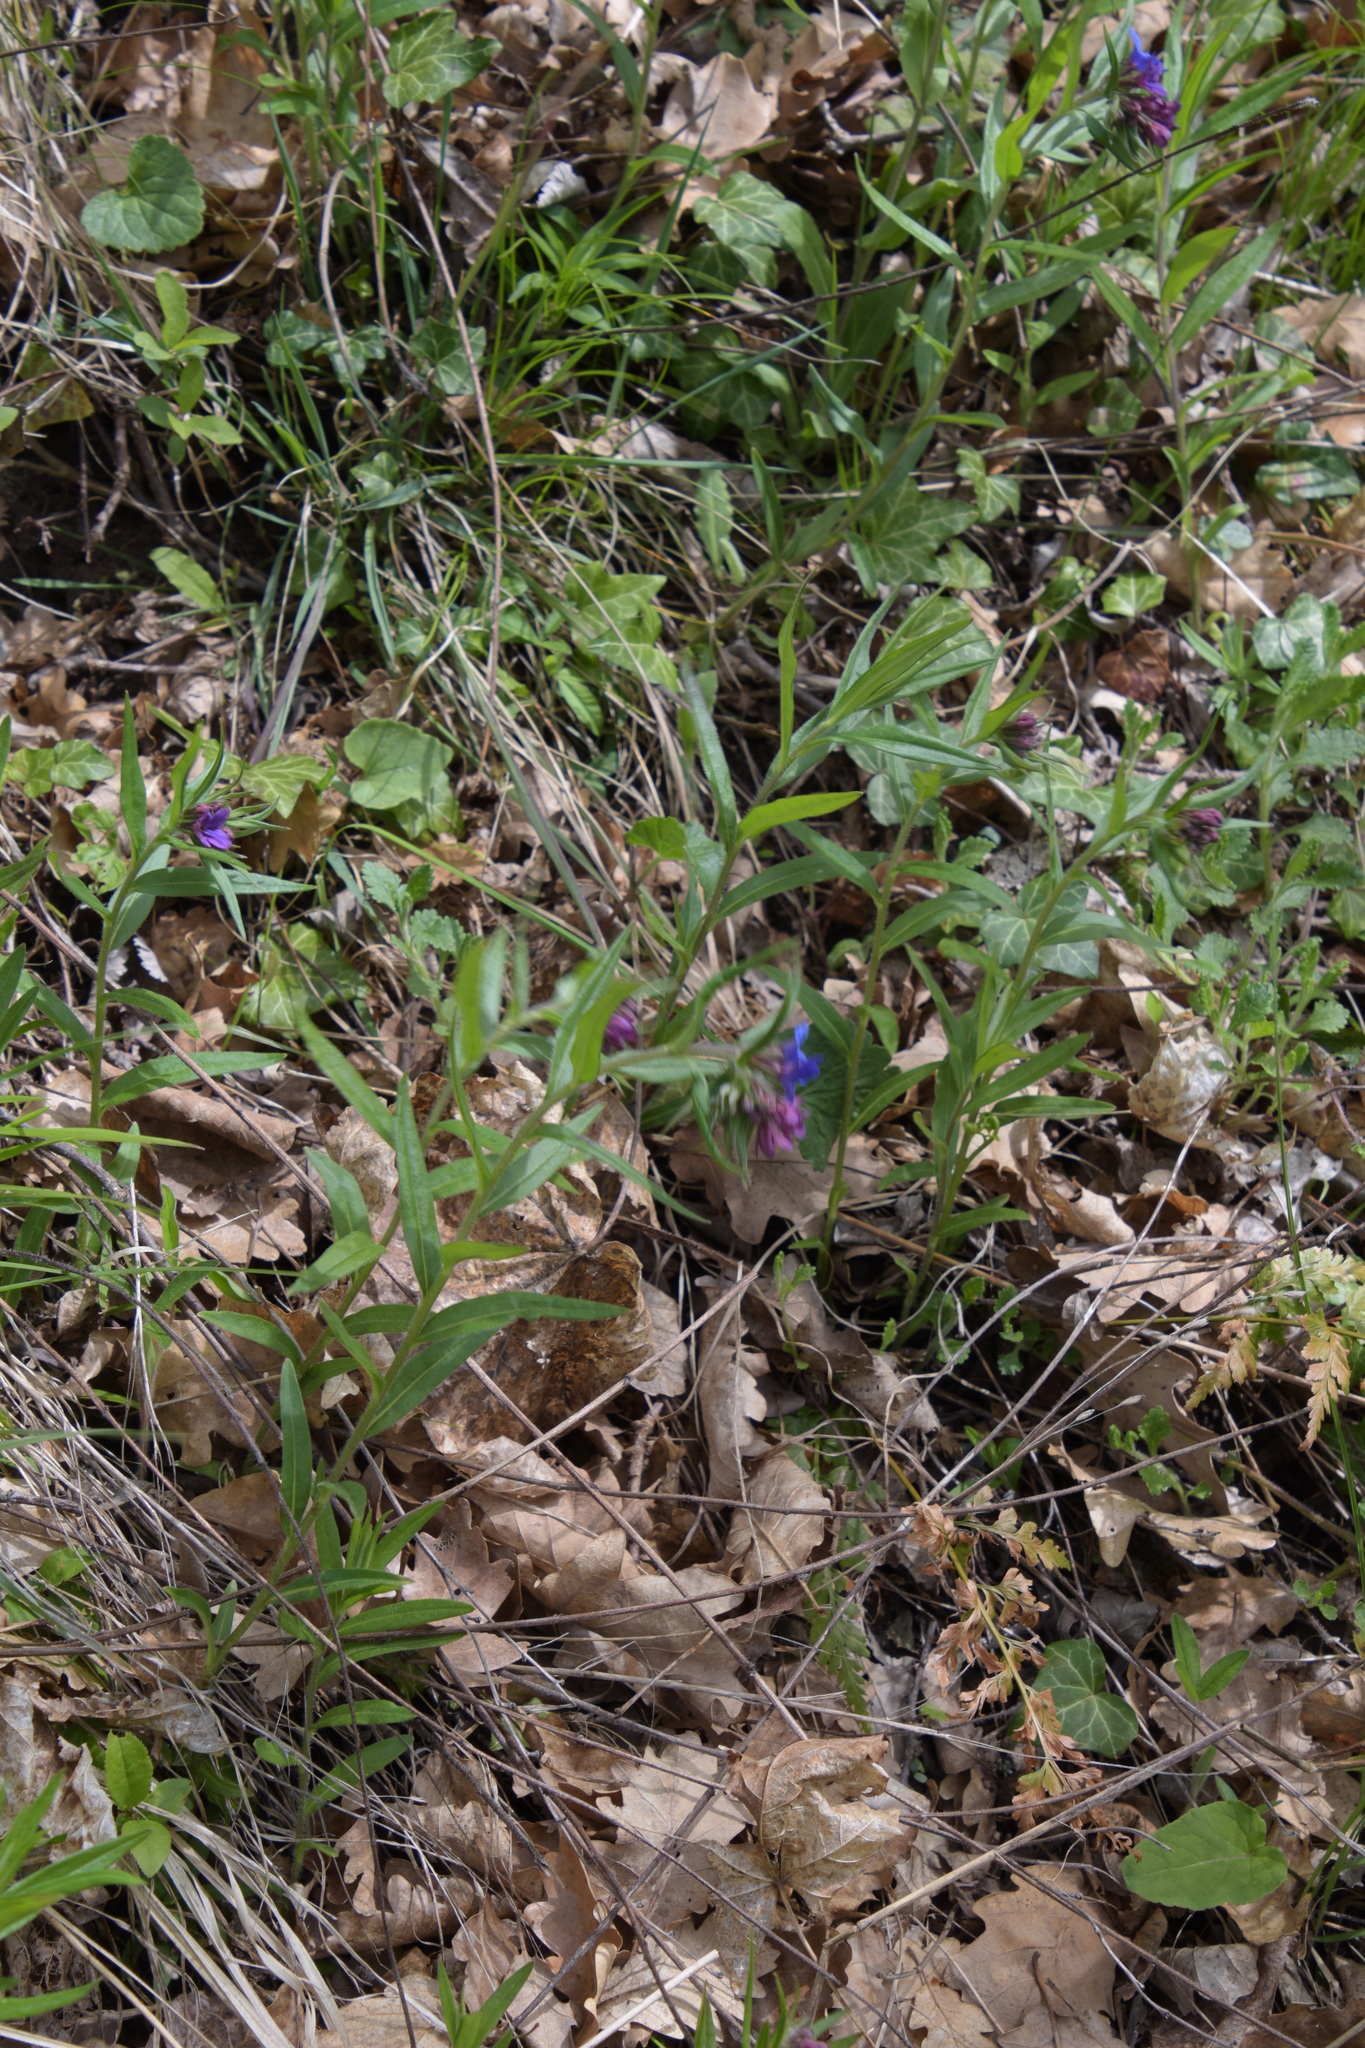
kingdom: Plantae
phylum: Tracheophyta
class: Magnoliopsida
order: Boraginales
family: Boraginaceae
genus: Aegonychon
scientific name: Aegonychon purpurocaeruleum
